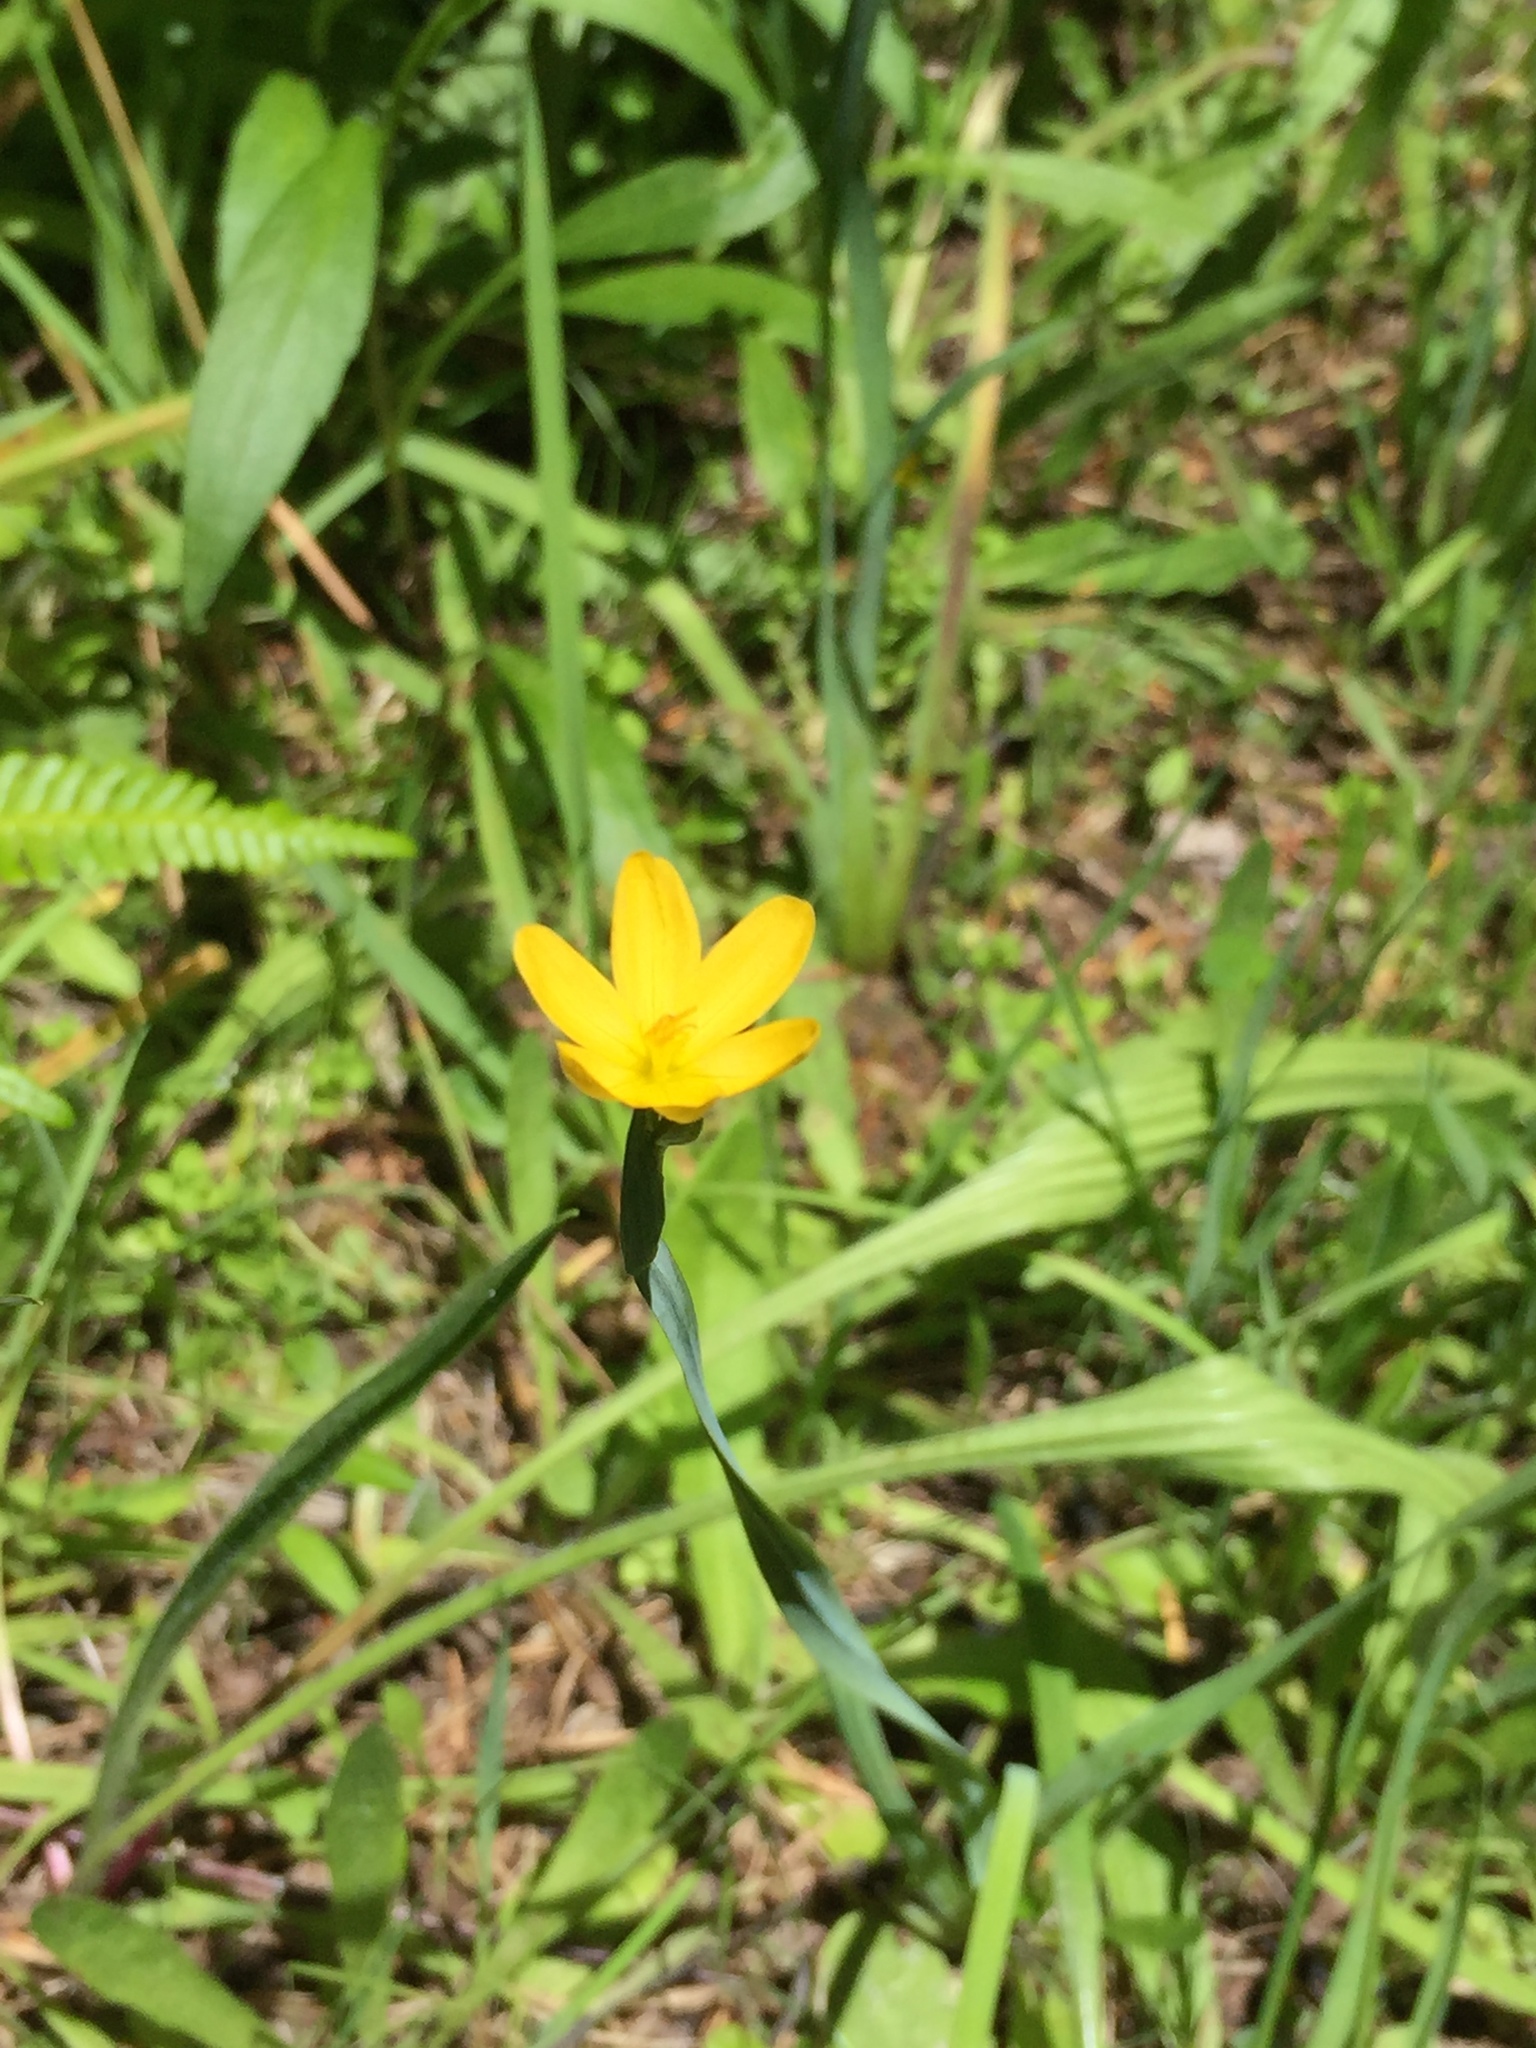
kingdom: Plantae
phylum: Tracheophyta
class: Liliopsida
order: Asparagales
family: Iridaceae
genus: Sisyrinchium
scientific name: Sisyrinchium californicum
